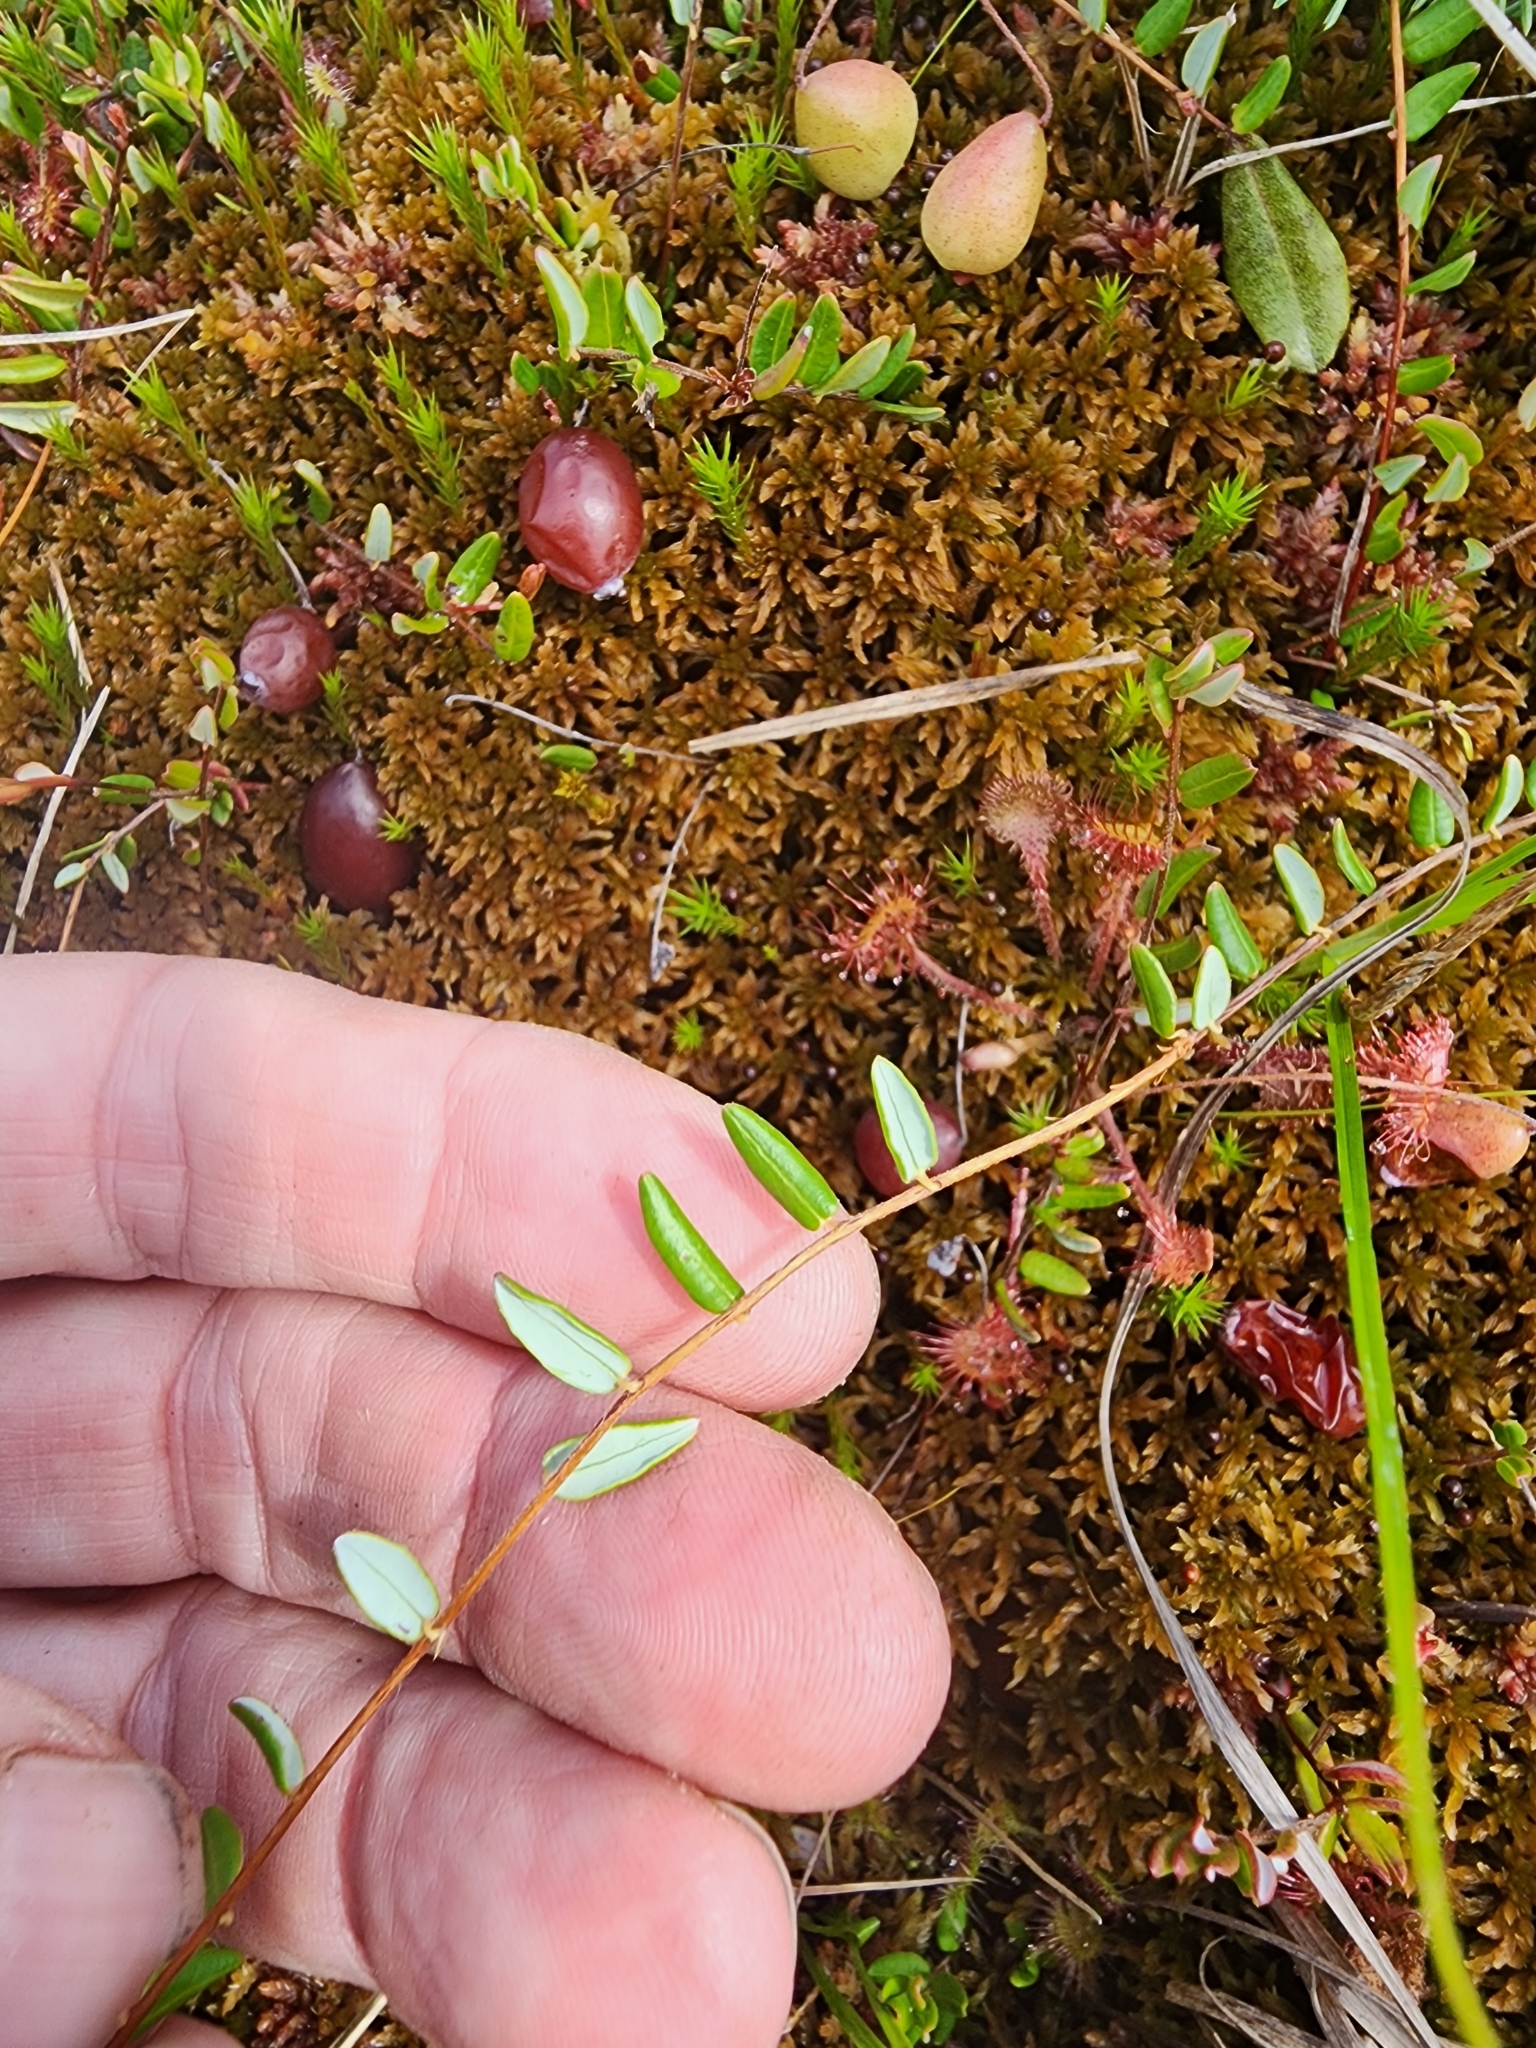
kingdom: Plantae
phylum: Tracheophyta
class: Magnoliopsida
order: Ericales
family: Ericaceae
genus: Vaccinium
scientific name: Vaccinium oxycoccos
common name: Cranberry
